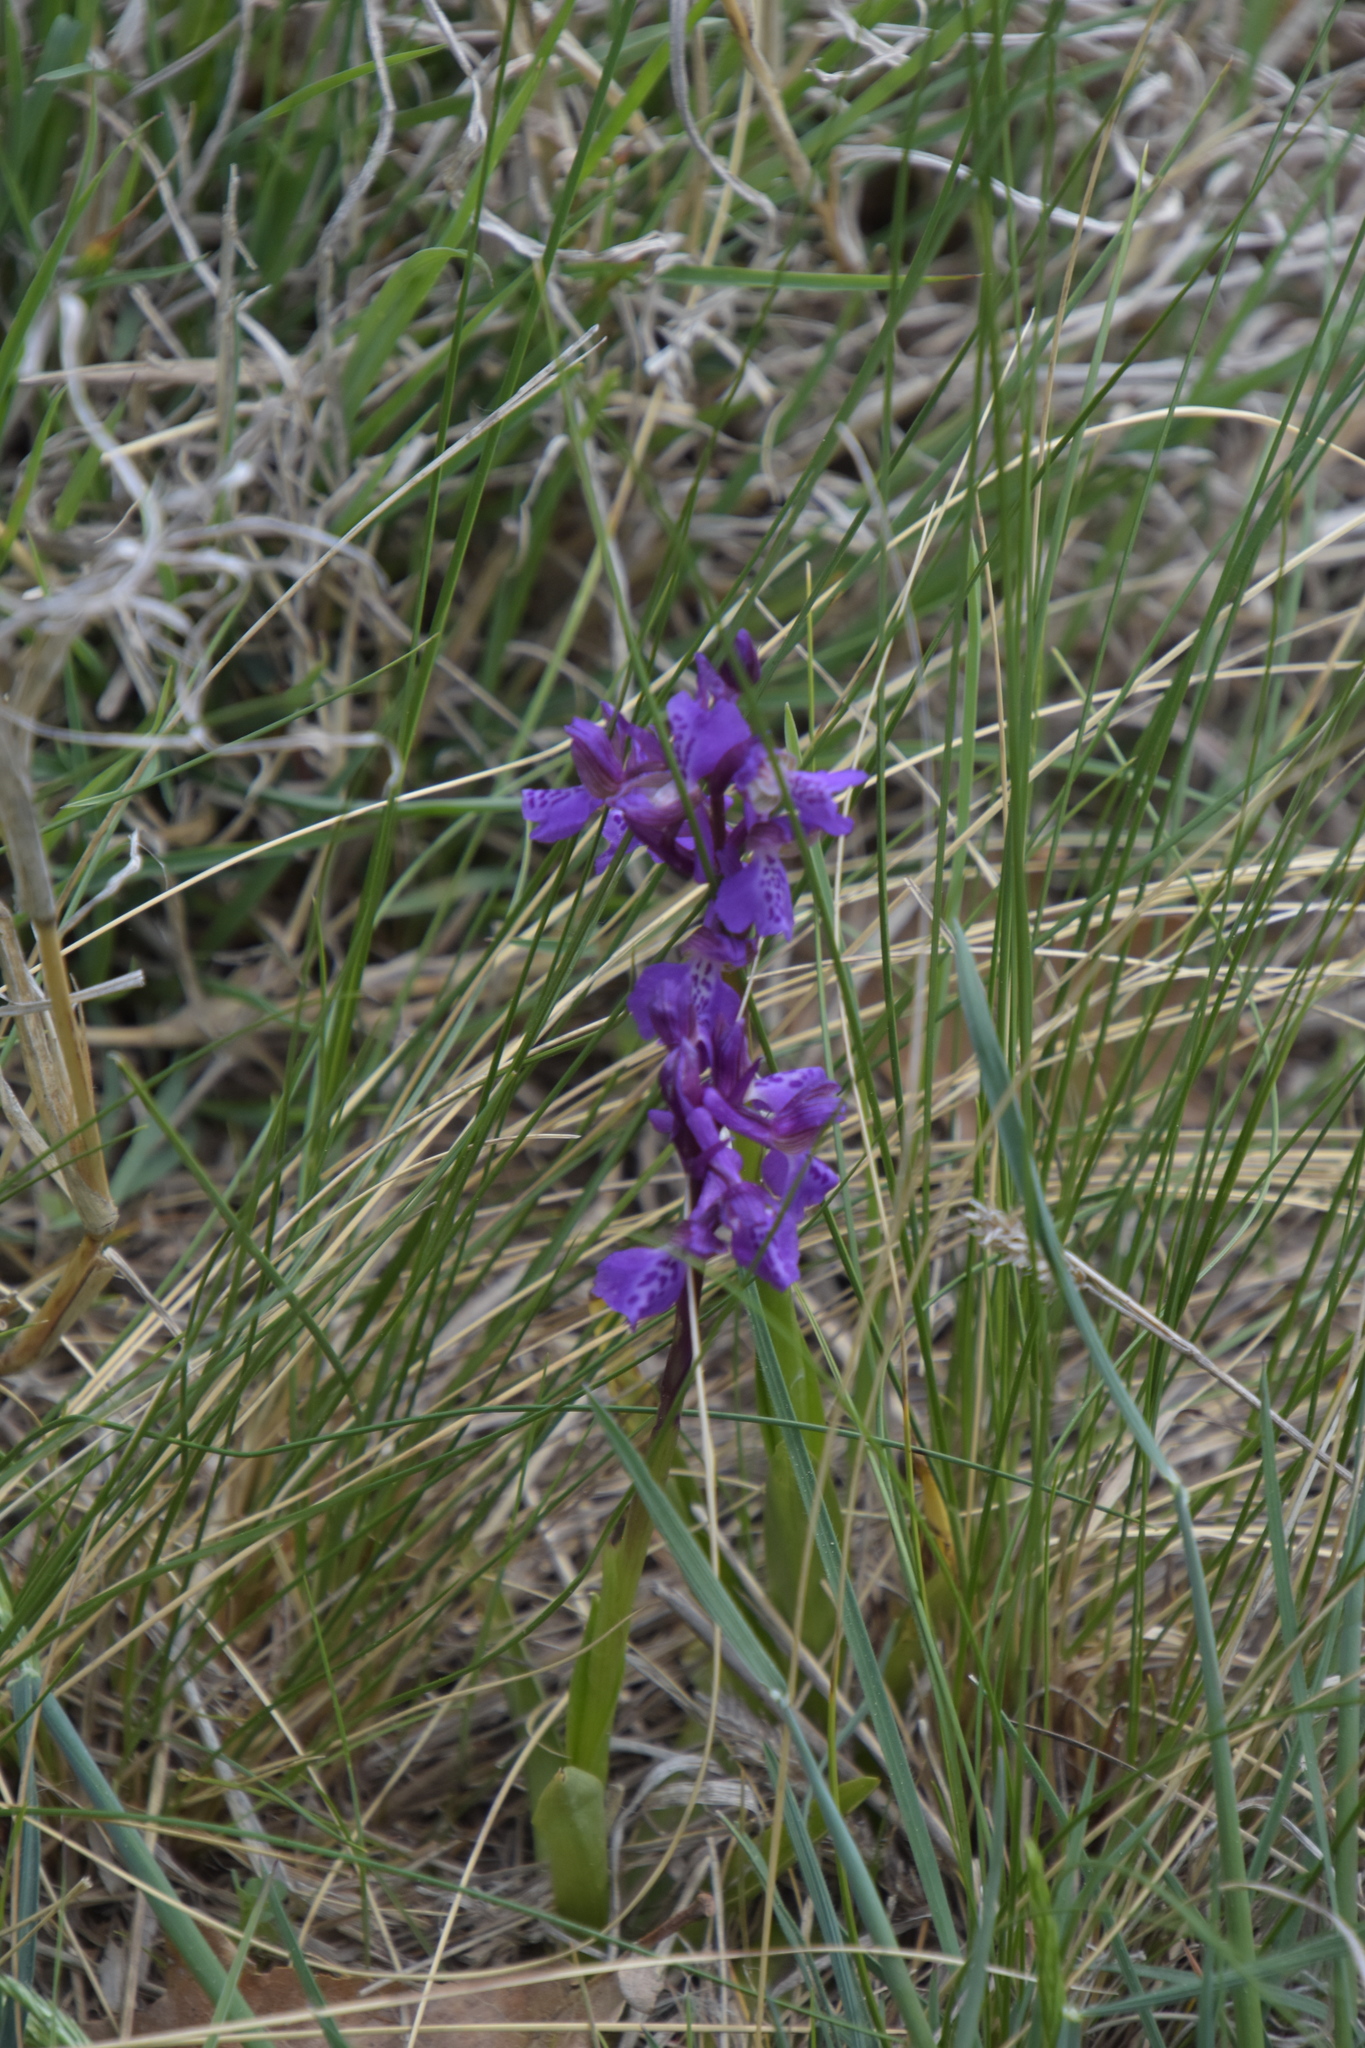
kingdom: Plantae
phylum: Tracheophyta
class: Liliopsida
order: Asparagales
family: Orchidaceae
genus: Anacamptis
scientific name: Anacamptis morio
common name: Green-winged orchid
